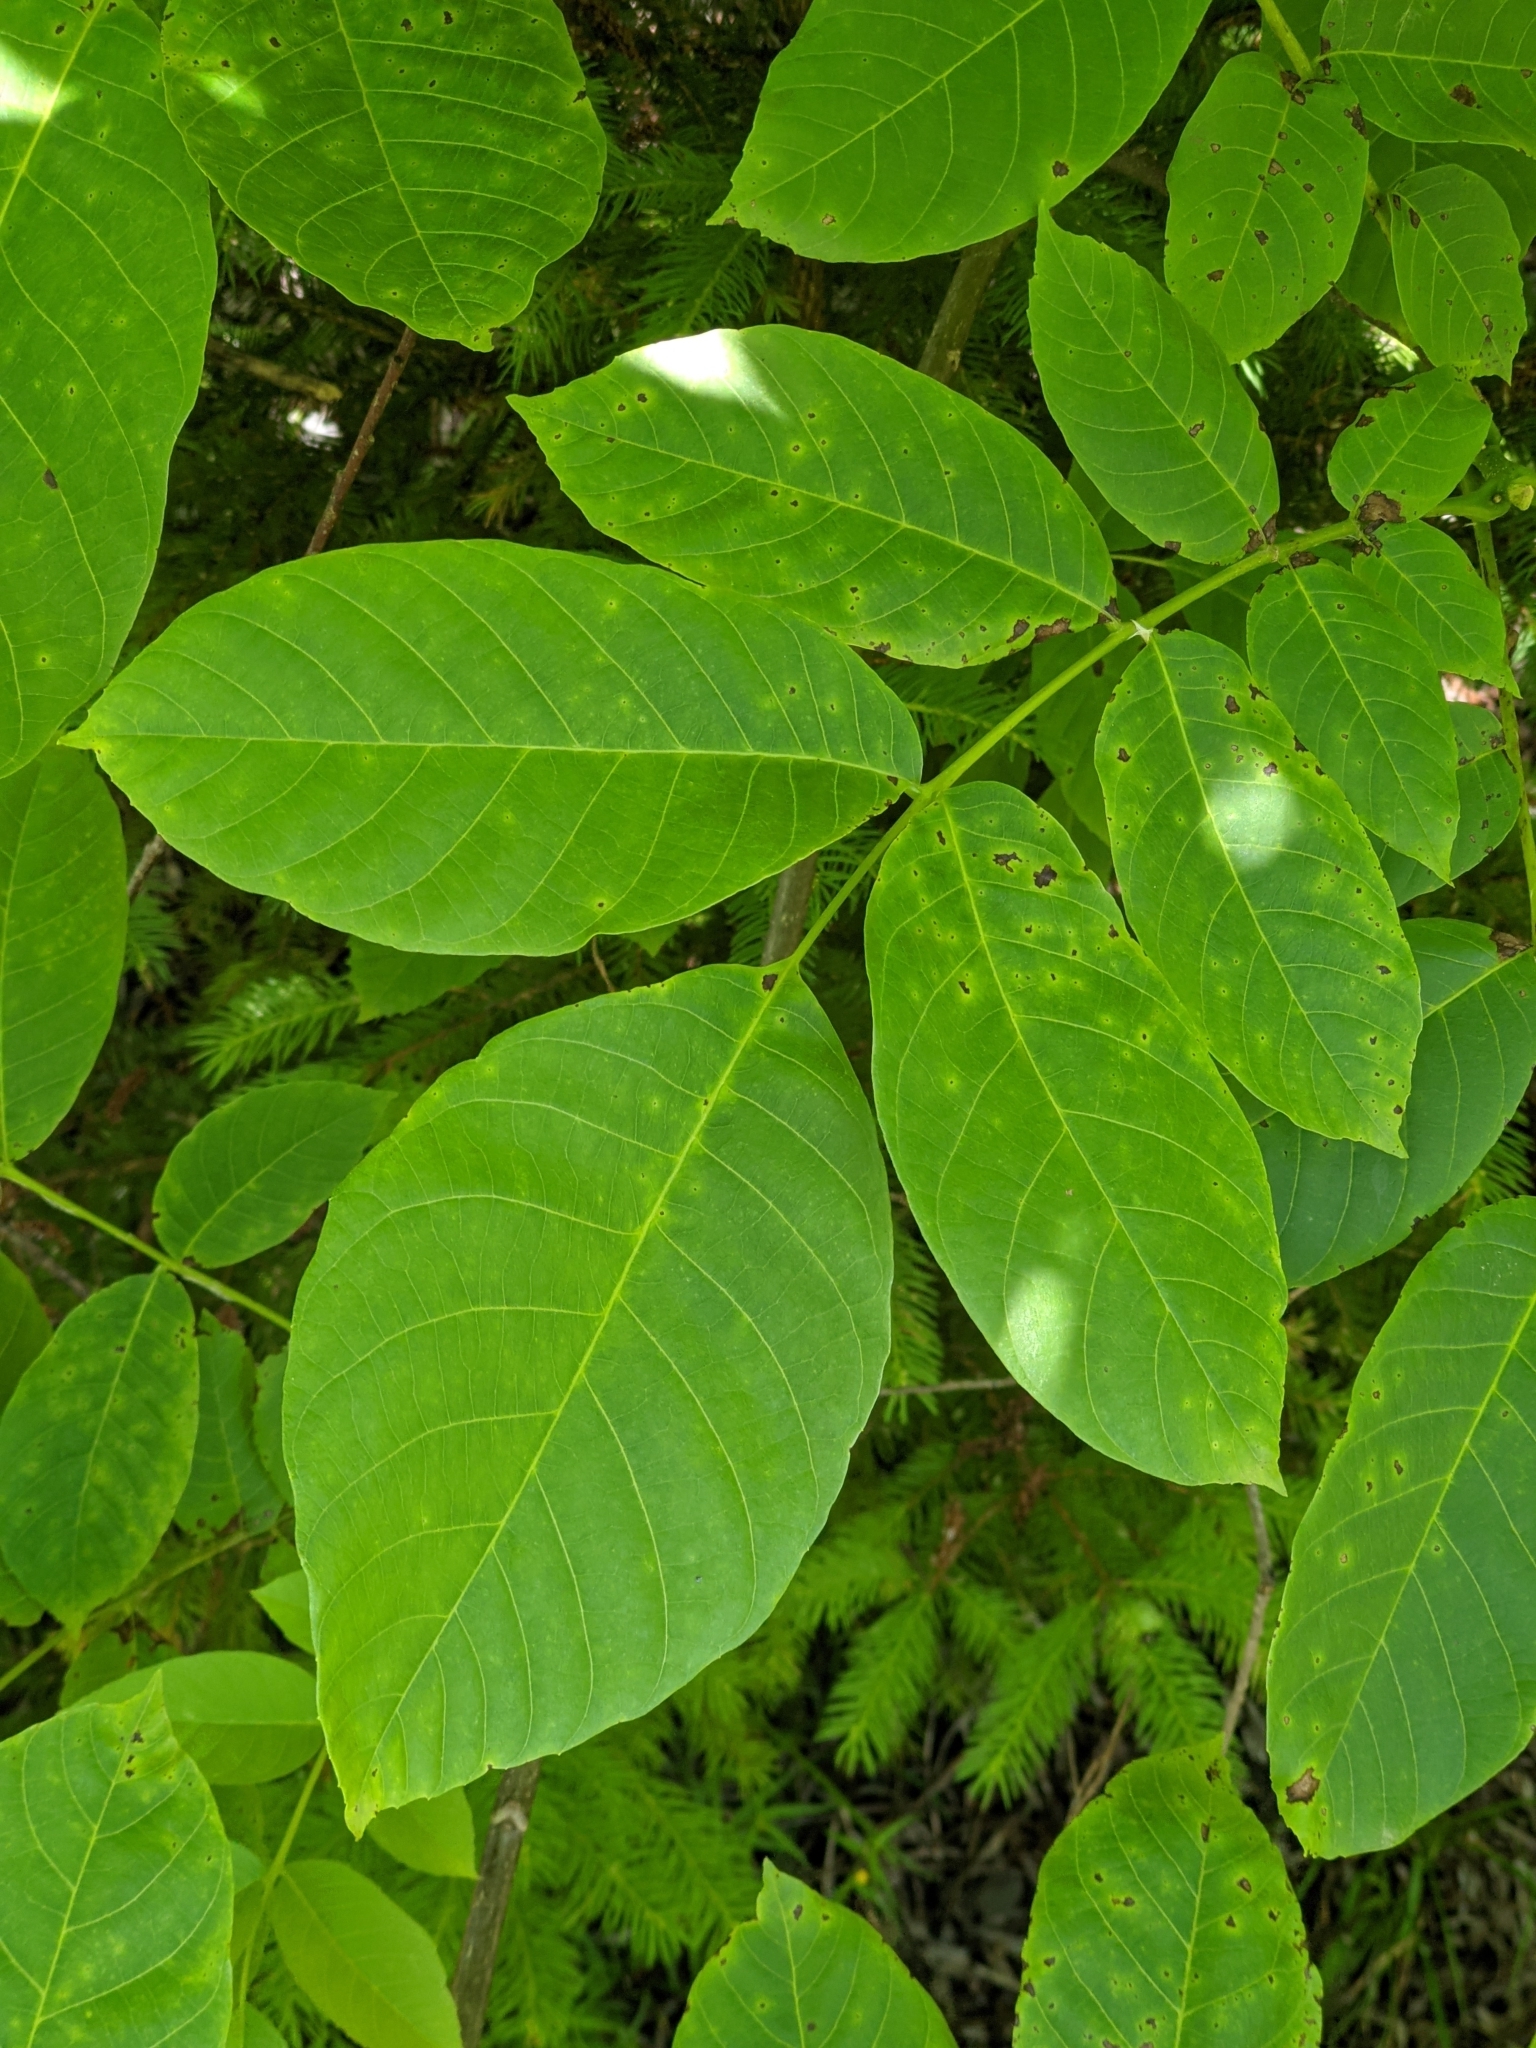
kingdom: Plantae
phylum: Tracheophyta
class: Magnoliopsida
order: Fagales
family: Juglandaceae
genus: Juglans
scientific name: Juglans regia
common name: Walnut
